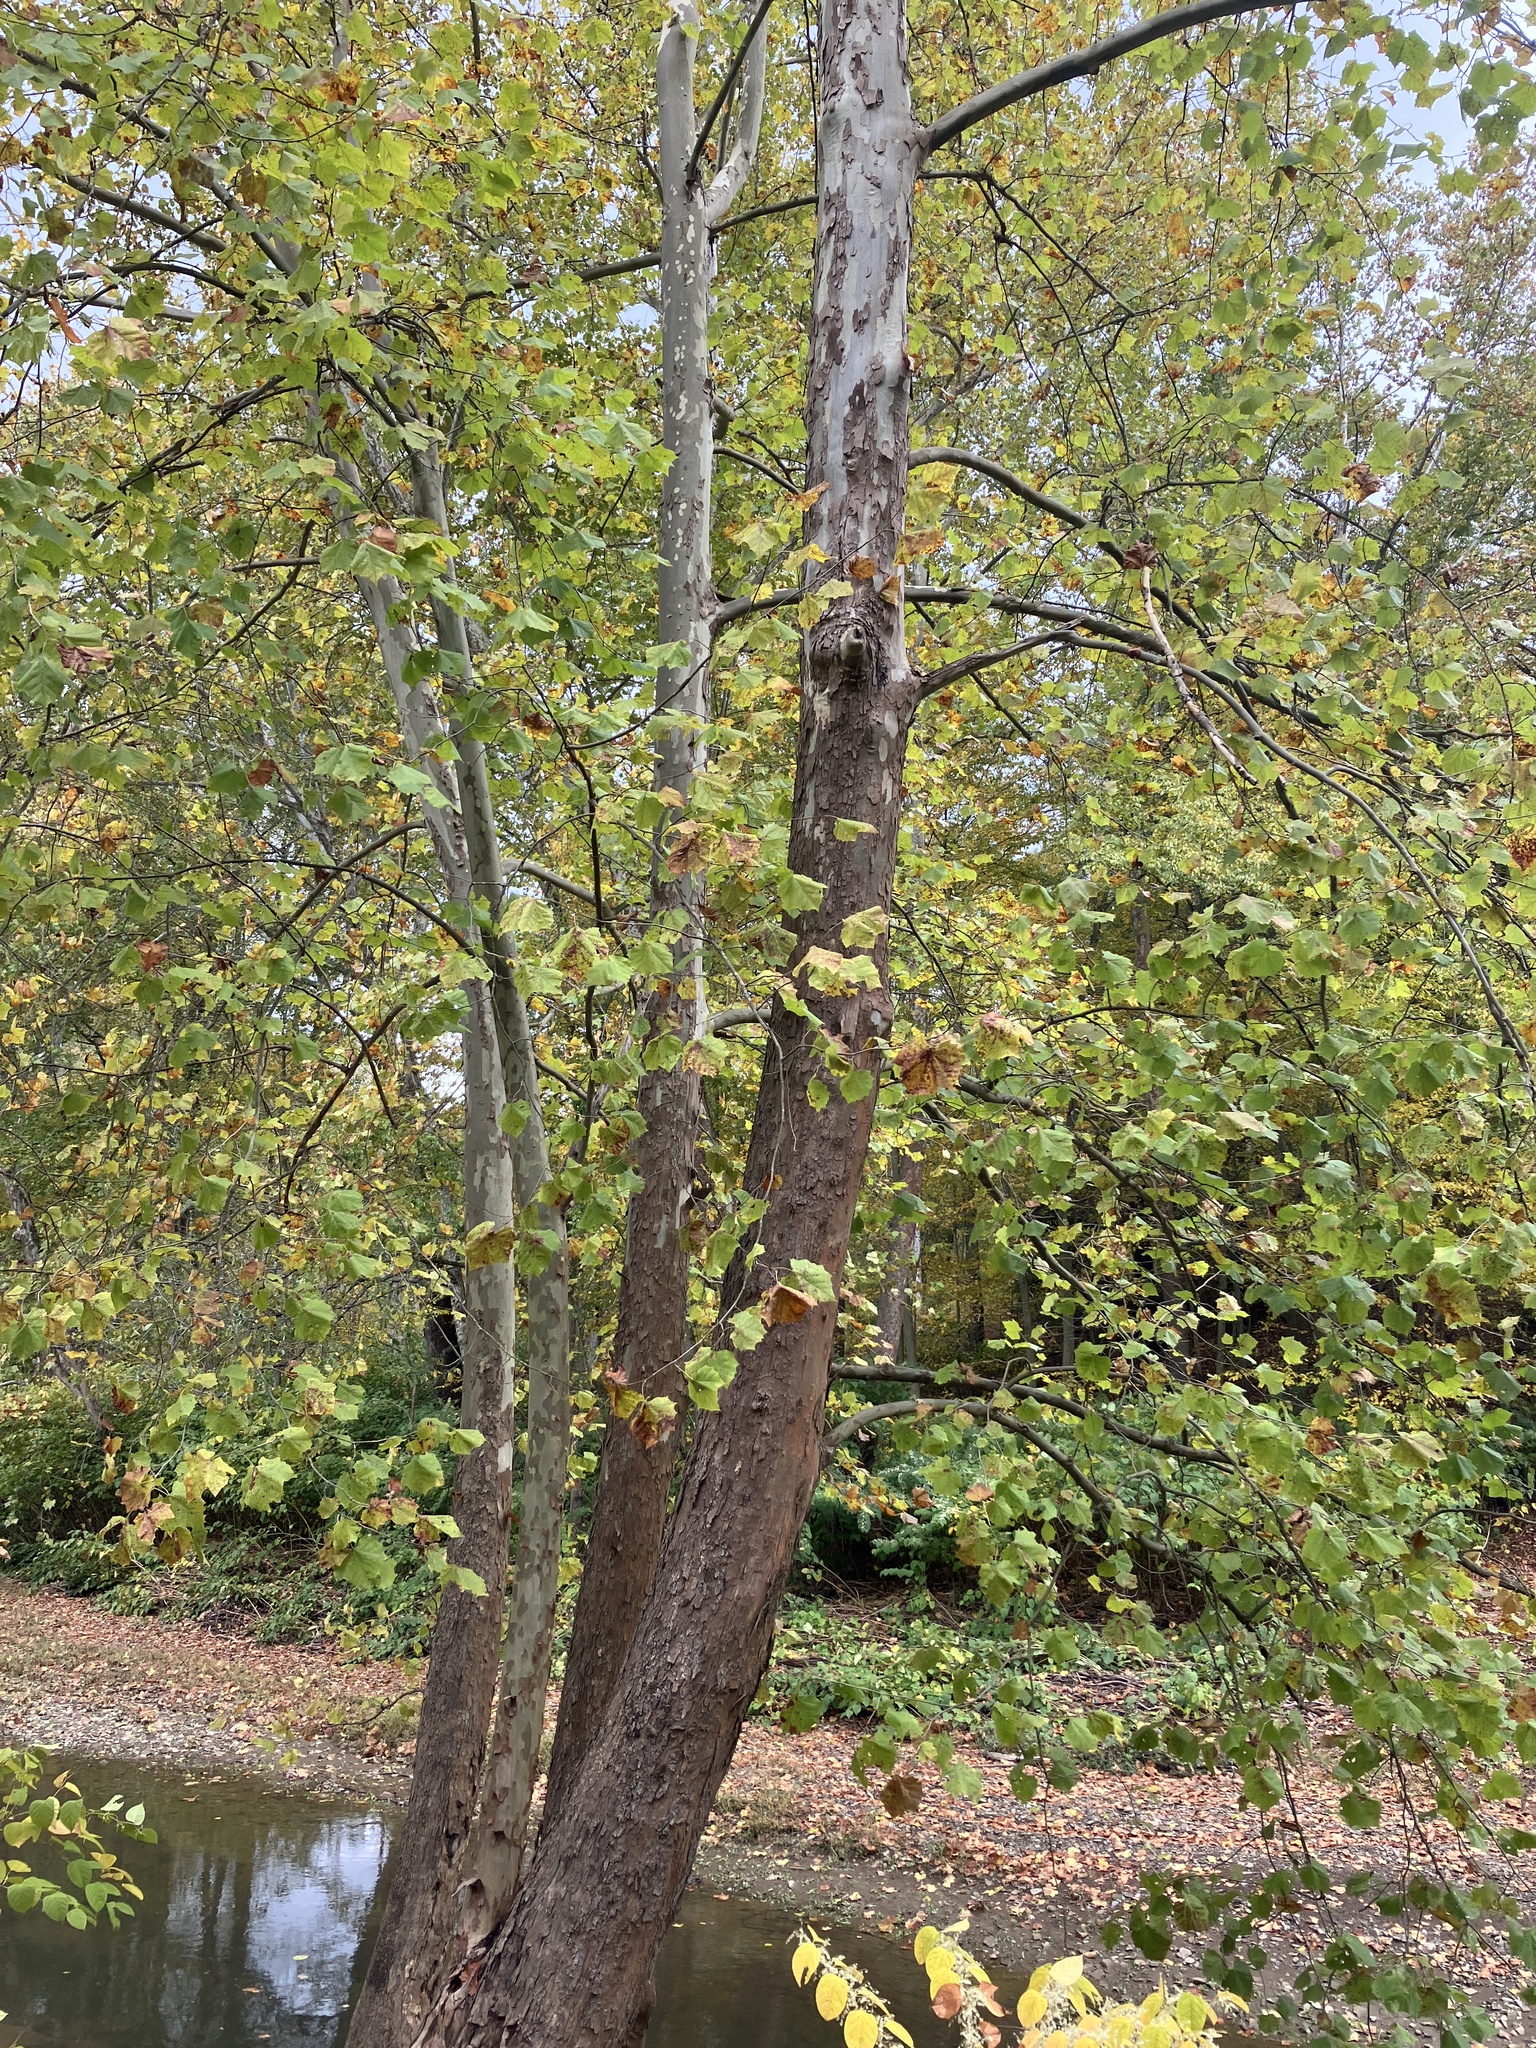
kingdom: Plantae
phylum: Tracheophyta
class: Magnoliopsida
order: Proteales
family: Platanaceae
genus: Platanus
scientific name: Platanus occidentalis
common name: American sycamore
